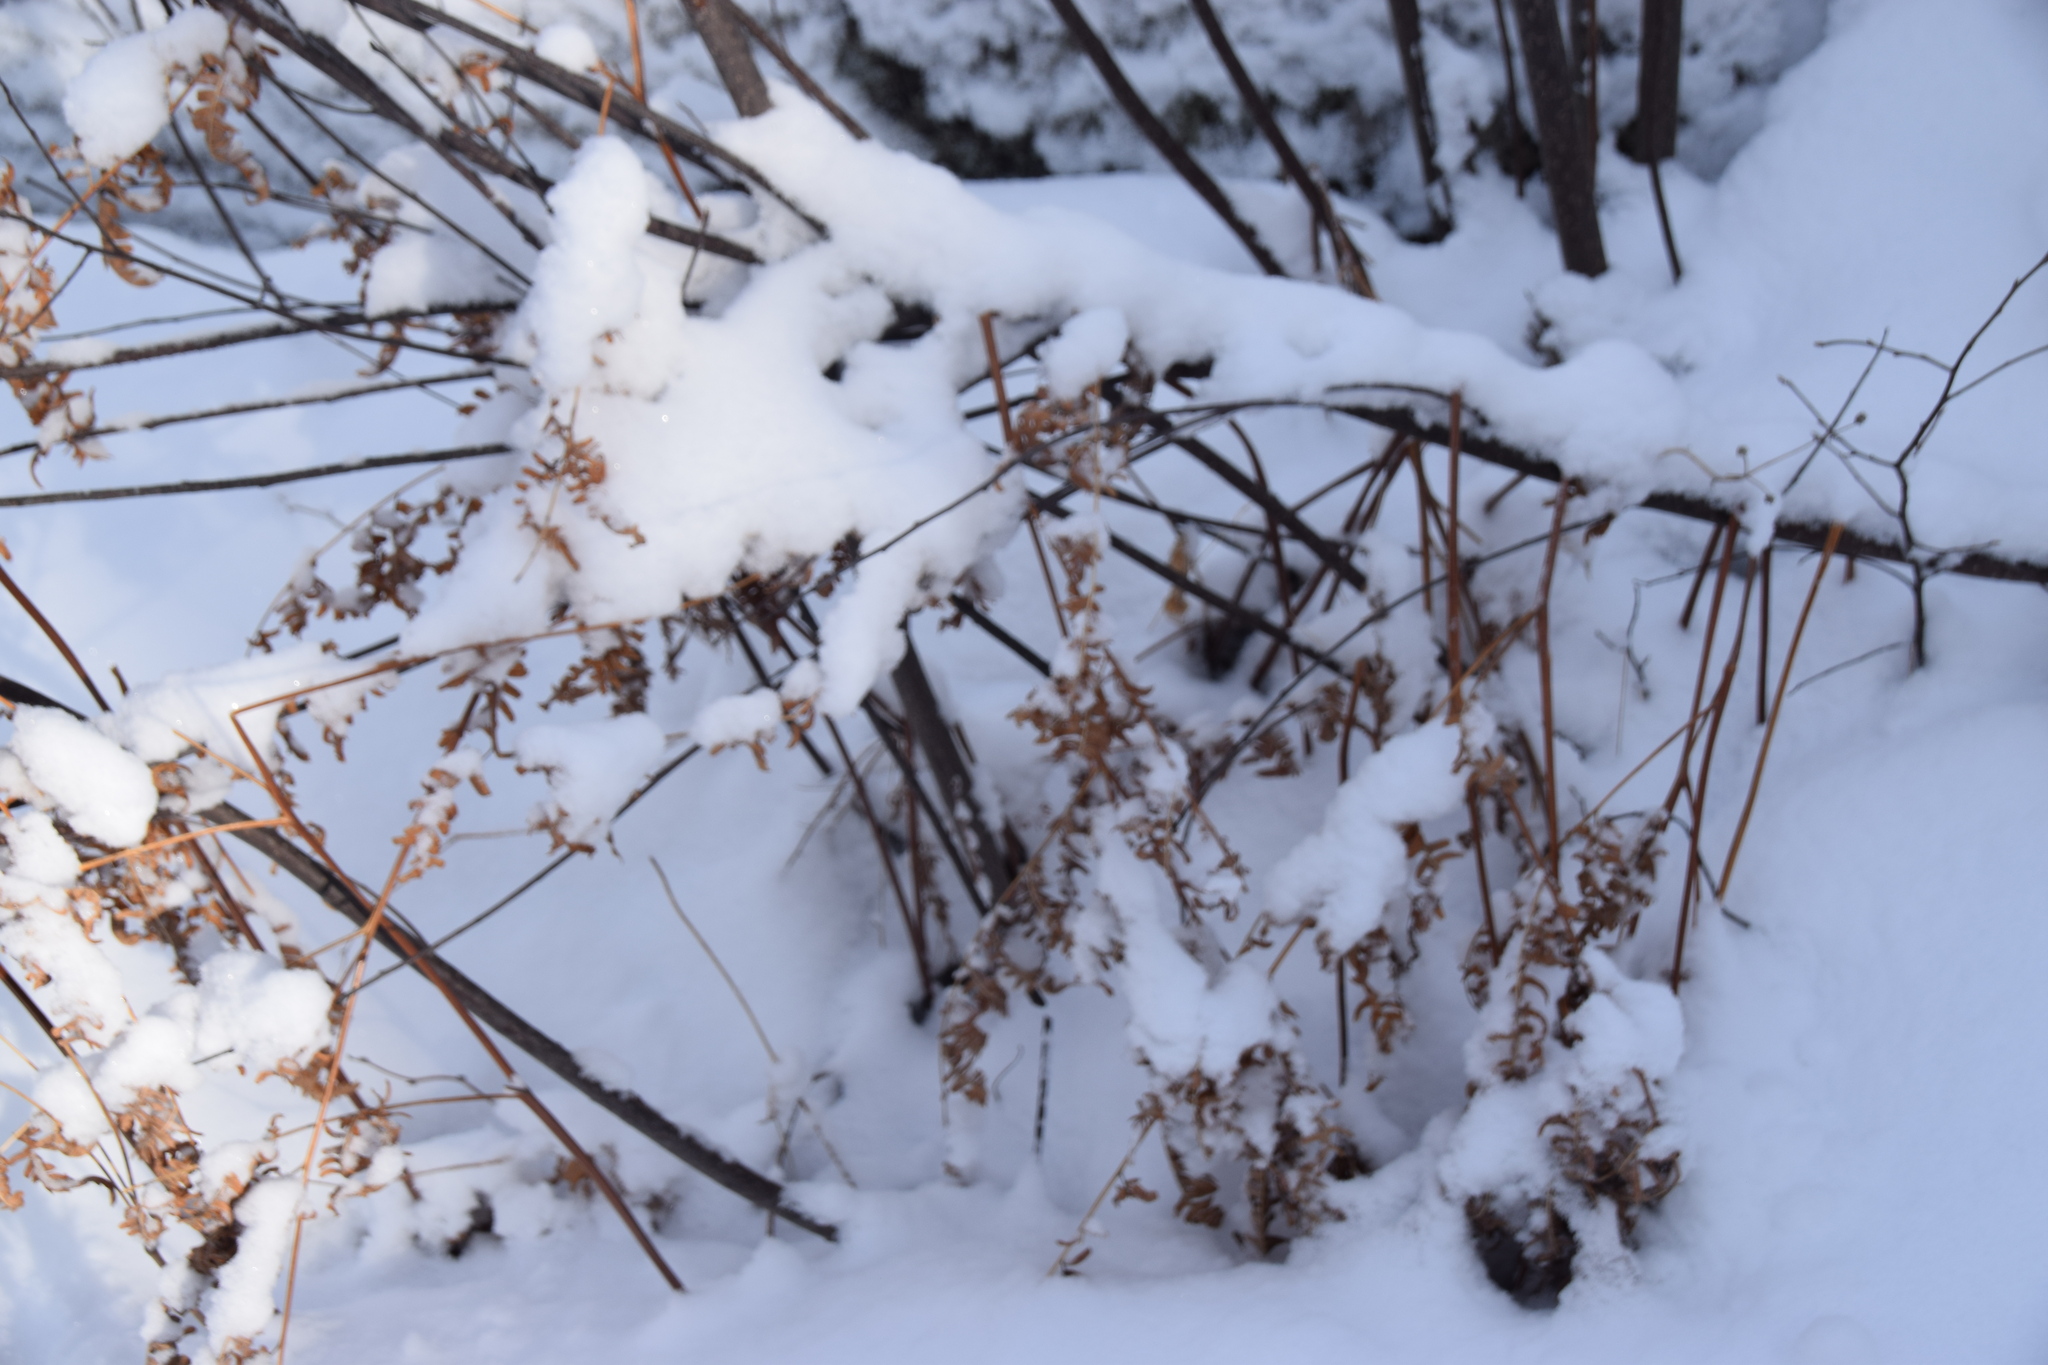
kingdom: Plantae
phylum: Tracheophyta
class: Polypodiopsida
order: Polypodiales
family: Dennstaedtiaceae
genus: Pteridium
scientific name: Pteridium aquilinum
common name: Bracken
